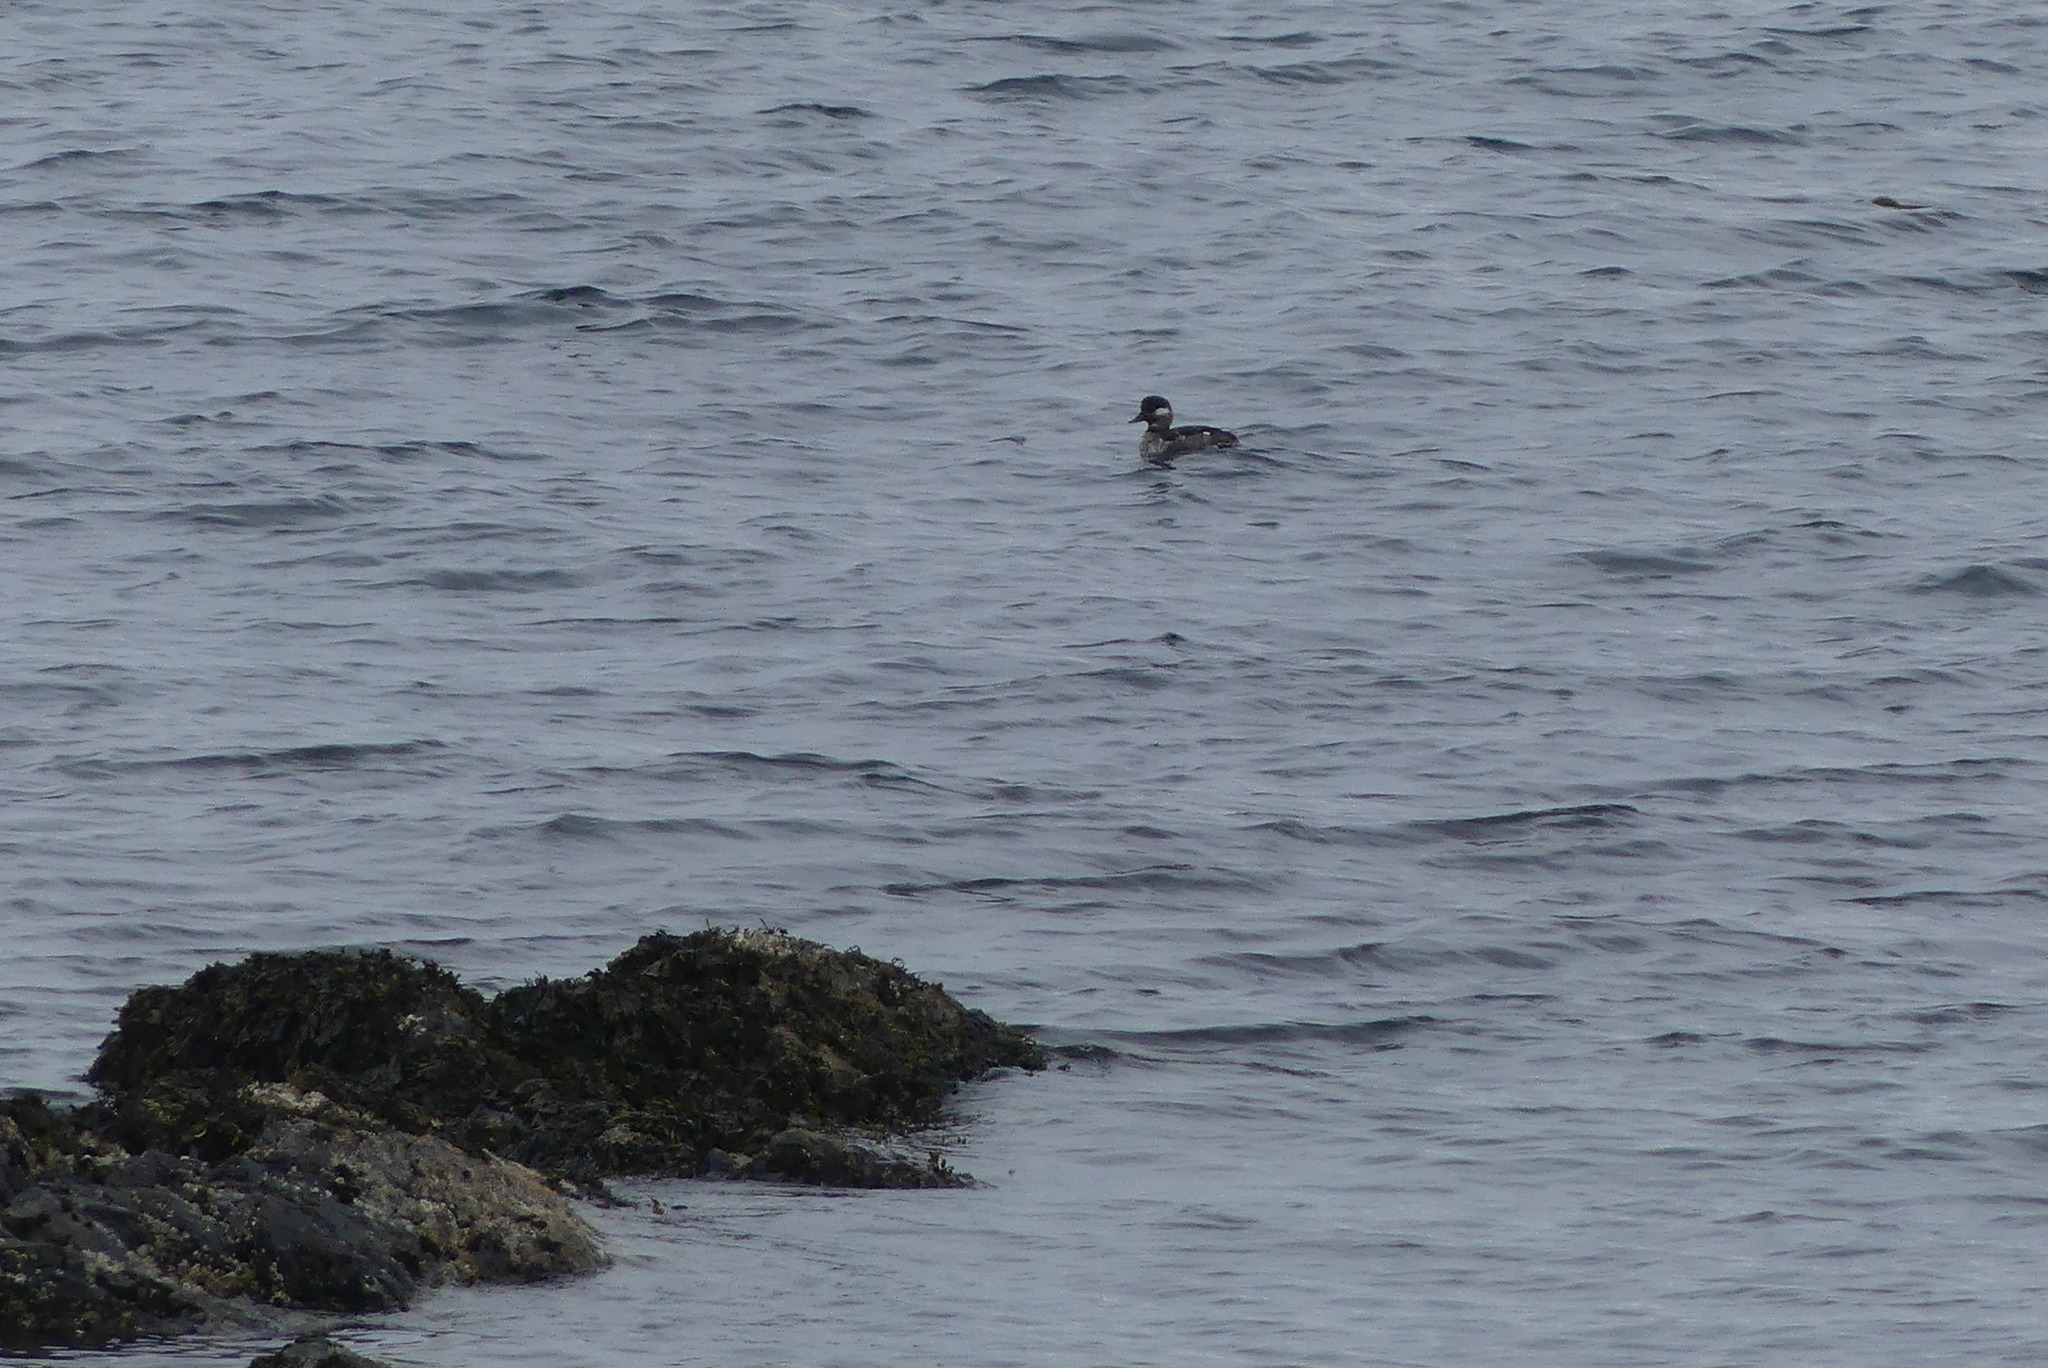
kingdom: Animalia
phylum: Chordata
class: Aves
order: Anseriformes
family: Anatidae
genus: Bucephala
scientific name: Bucephala albeola
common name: Bufflehead
